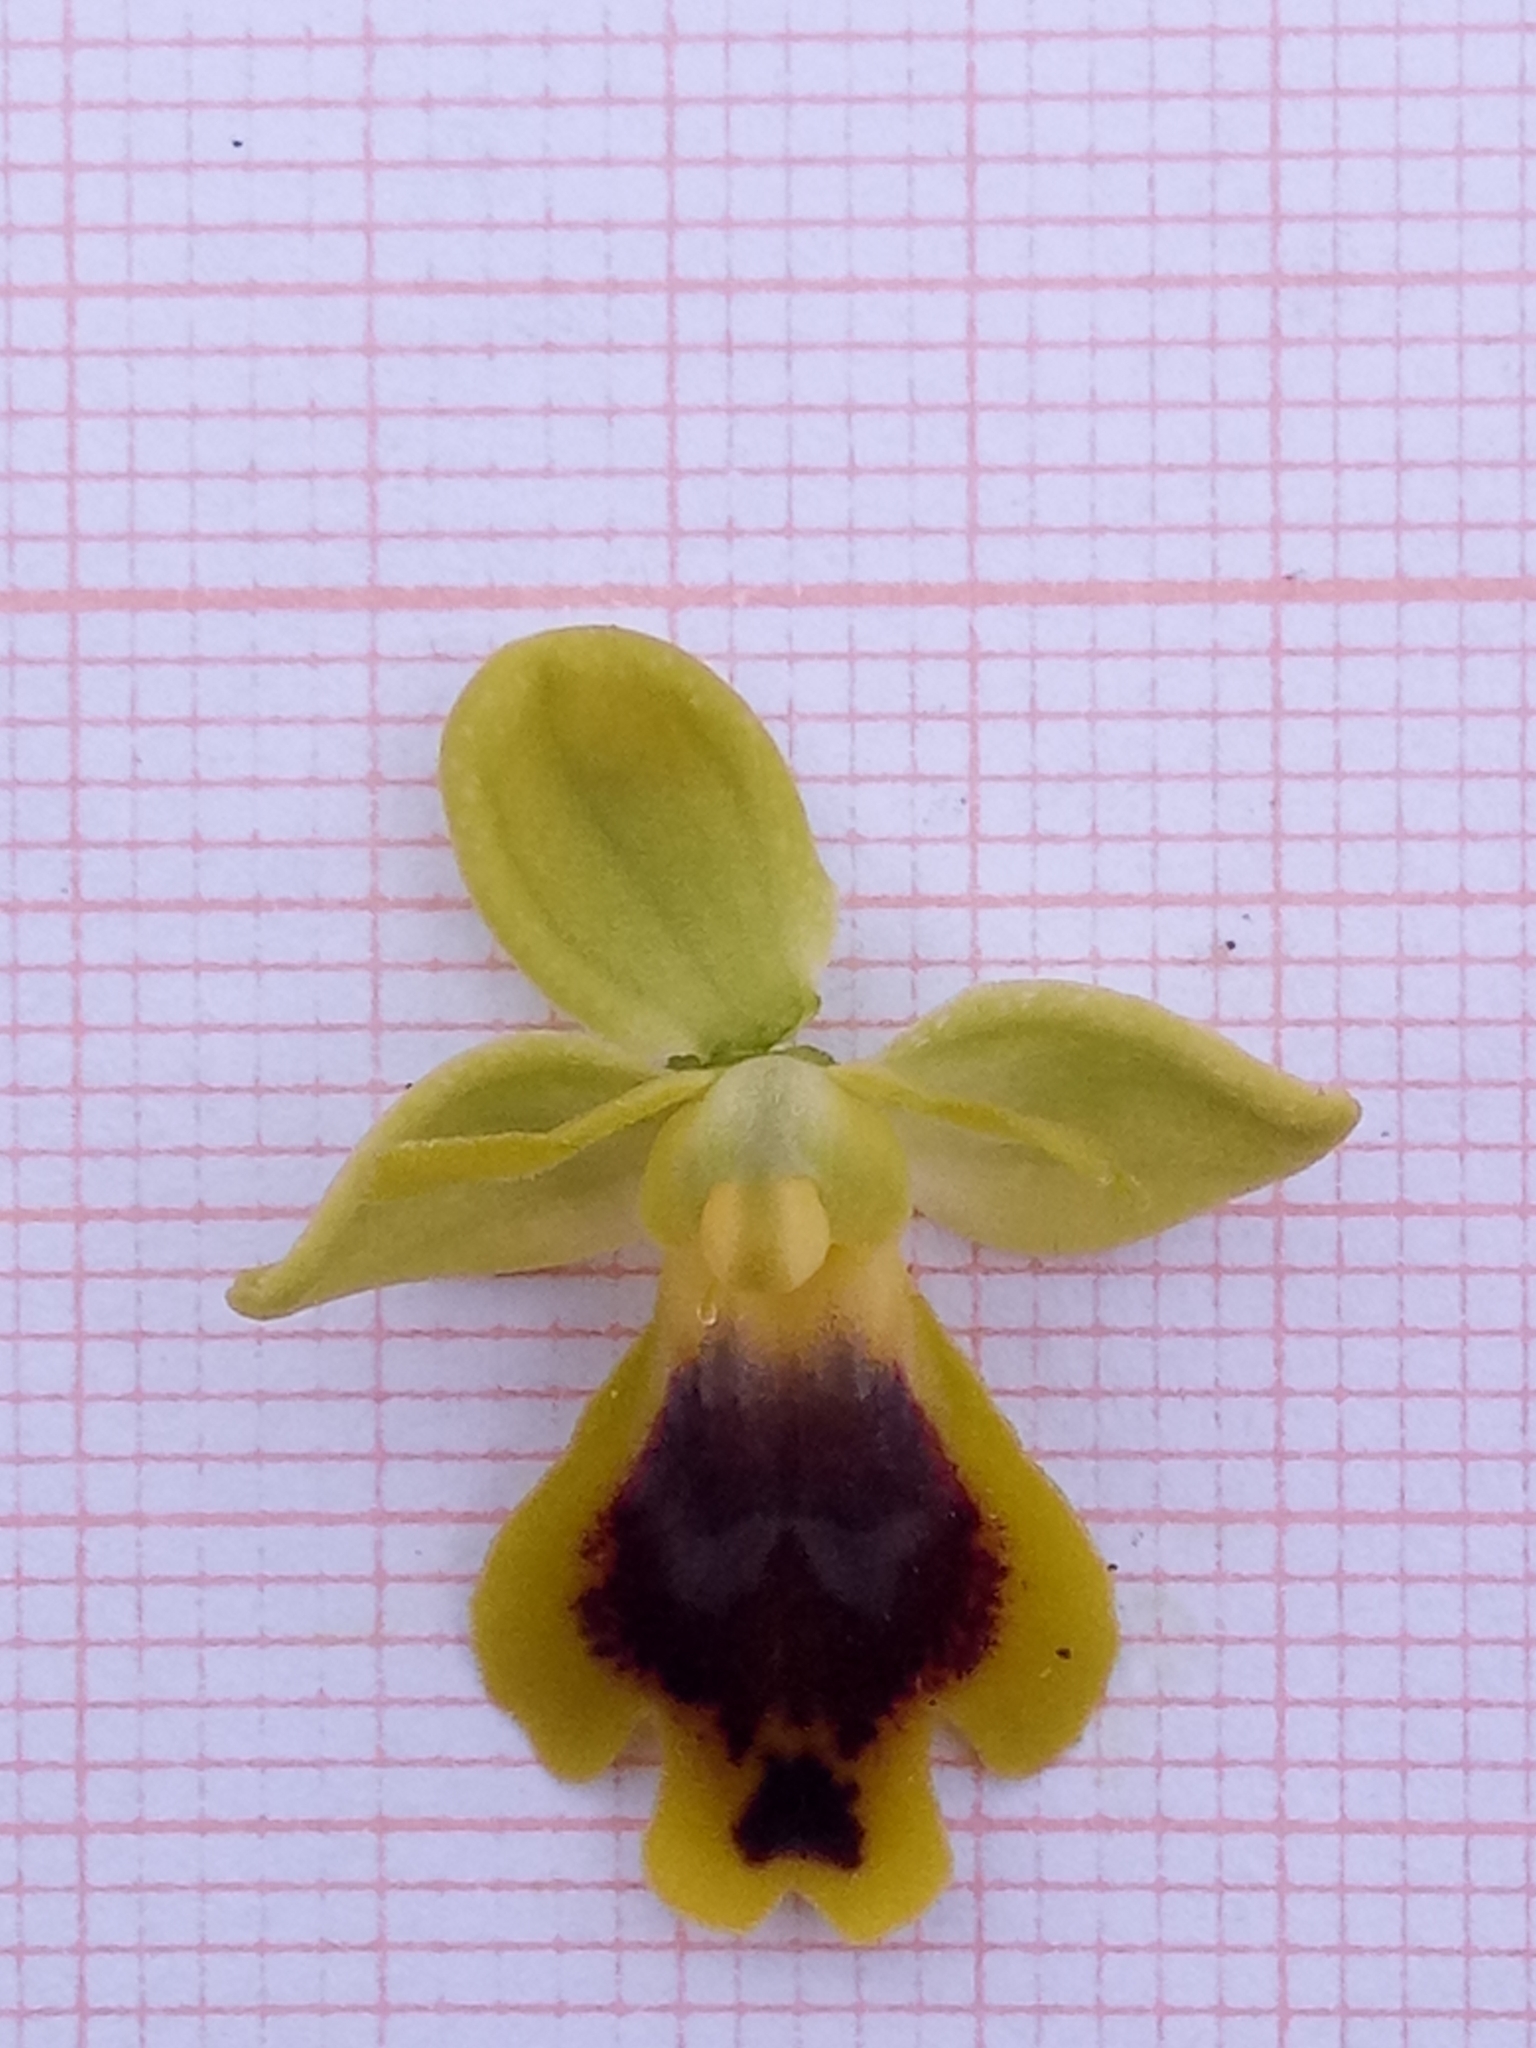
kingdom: Plantae
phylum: Tracheophyta
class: Liliopsida
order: Asparagales
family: Orchidaceae
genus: Ophrys
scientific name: Ophrys battandieri
